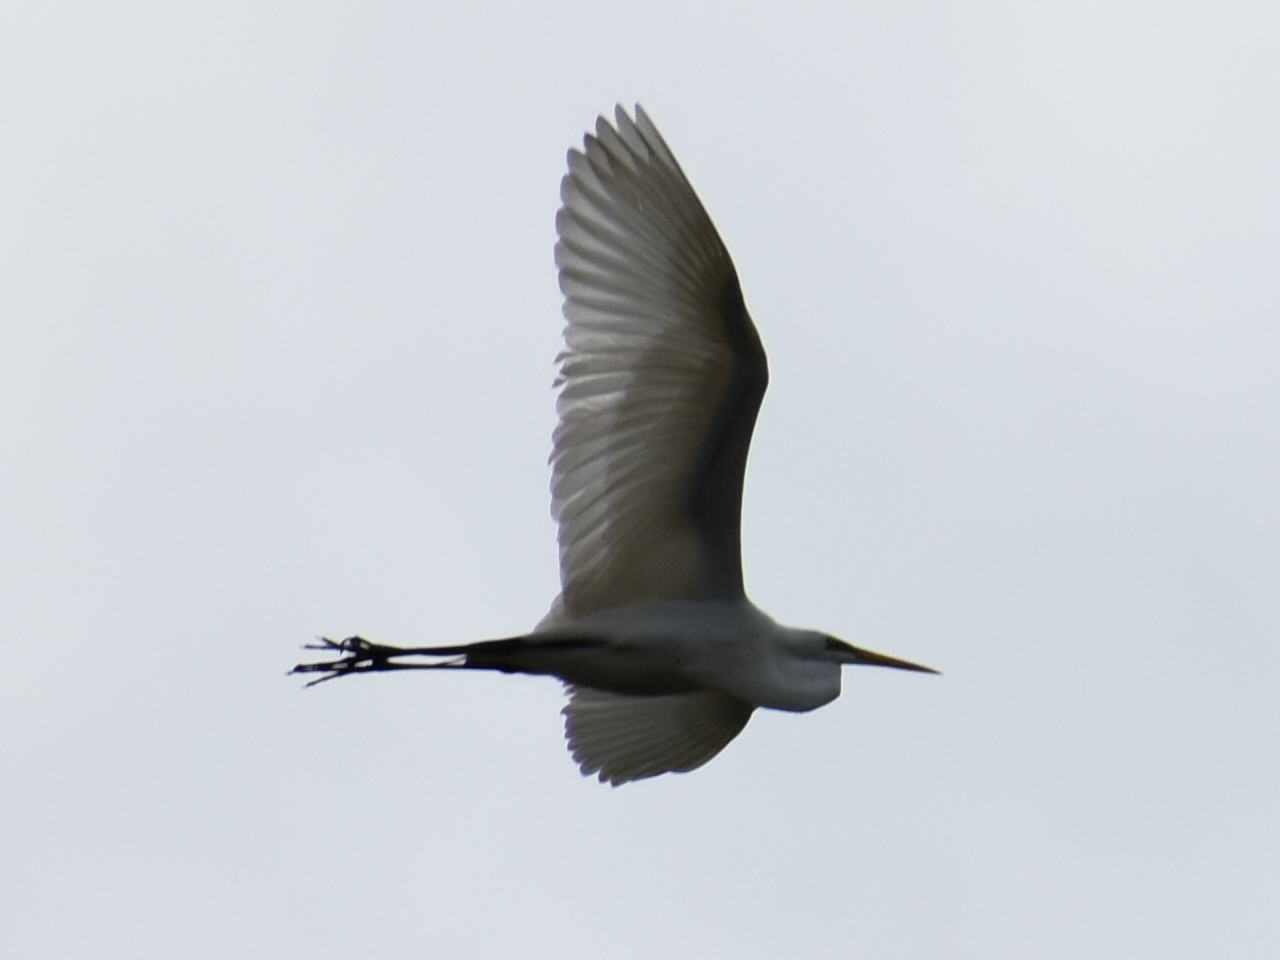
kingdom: Animalia
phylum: Chordata
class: Aves
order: Pelecaniformes
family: Ardeidae
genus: Ardea
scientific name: Ardea alba
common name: Great egret
